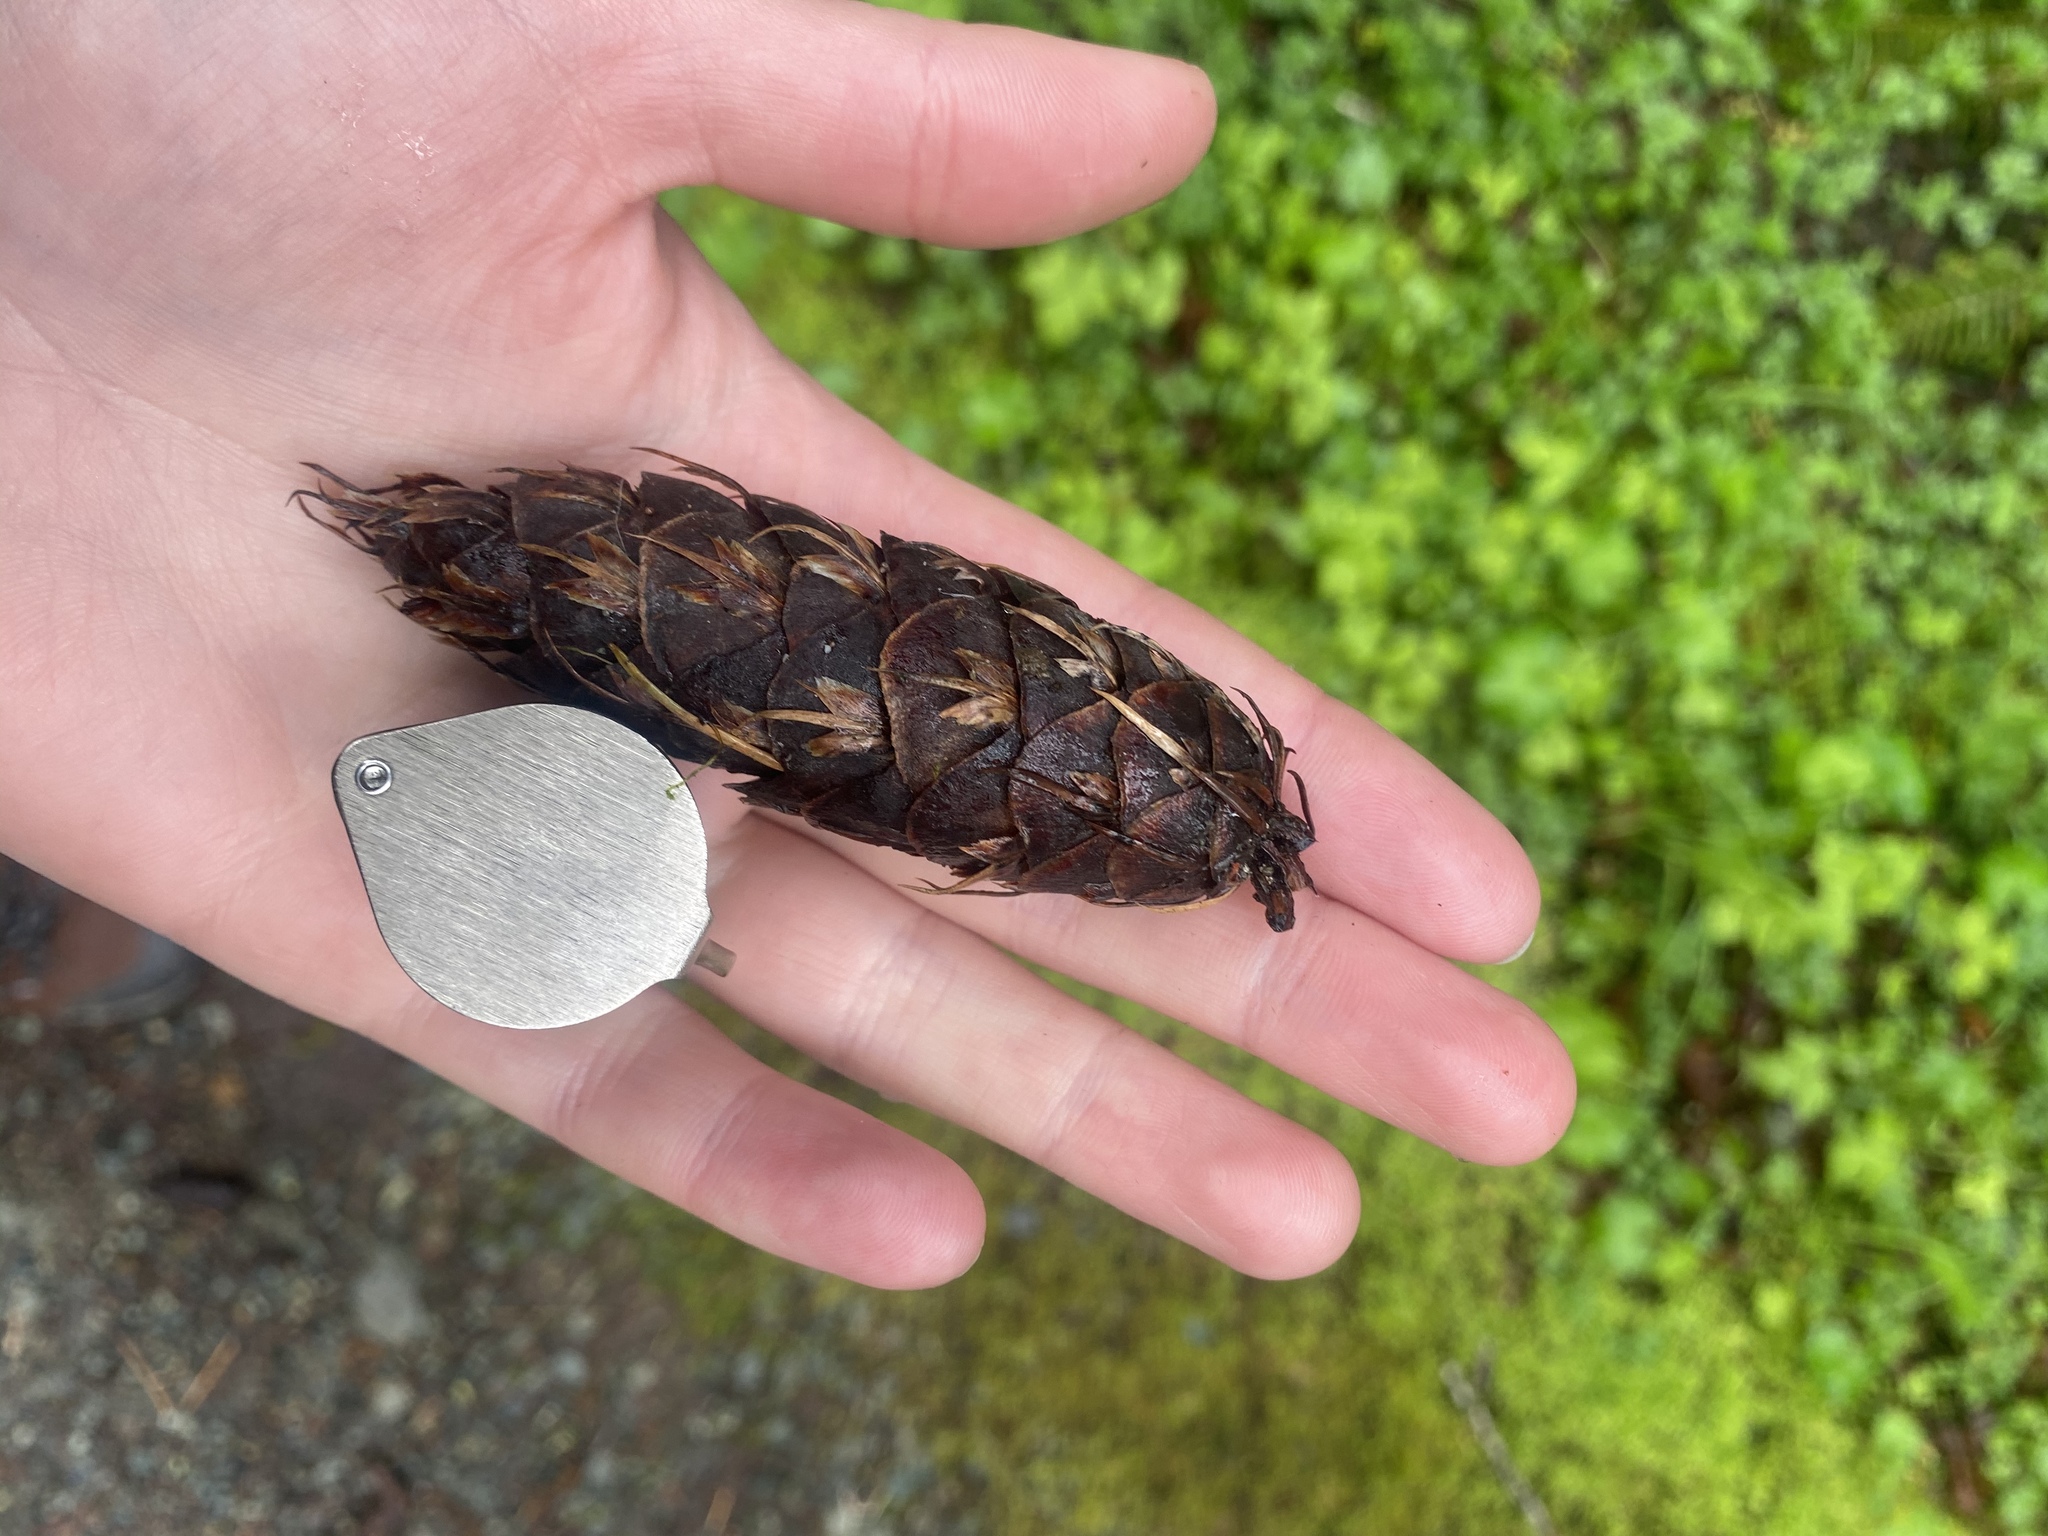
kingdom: Plantae
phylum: Tracheophyta
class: Pinopsida
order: Pinales
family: Pinaceae
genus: Pseudotsuga
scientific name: Pseudotsuga menziesii
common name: Douglas fir
